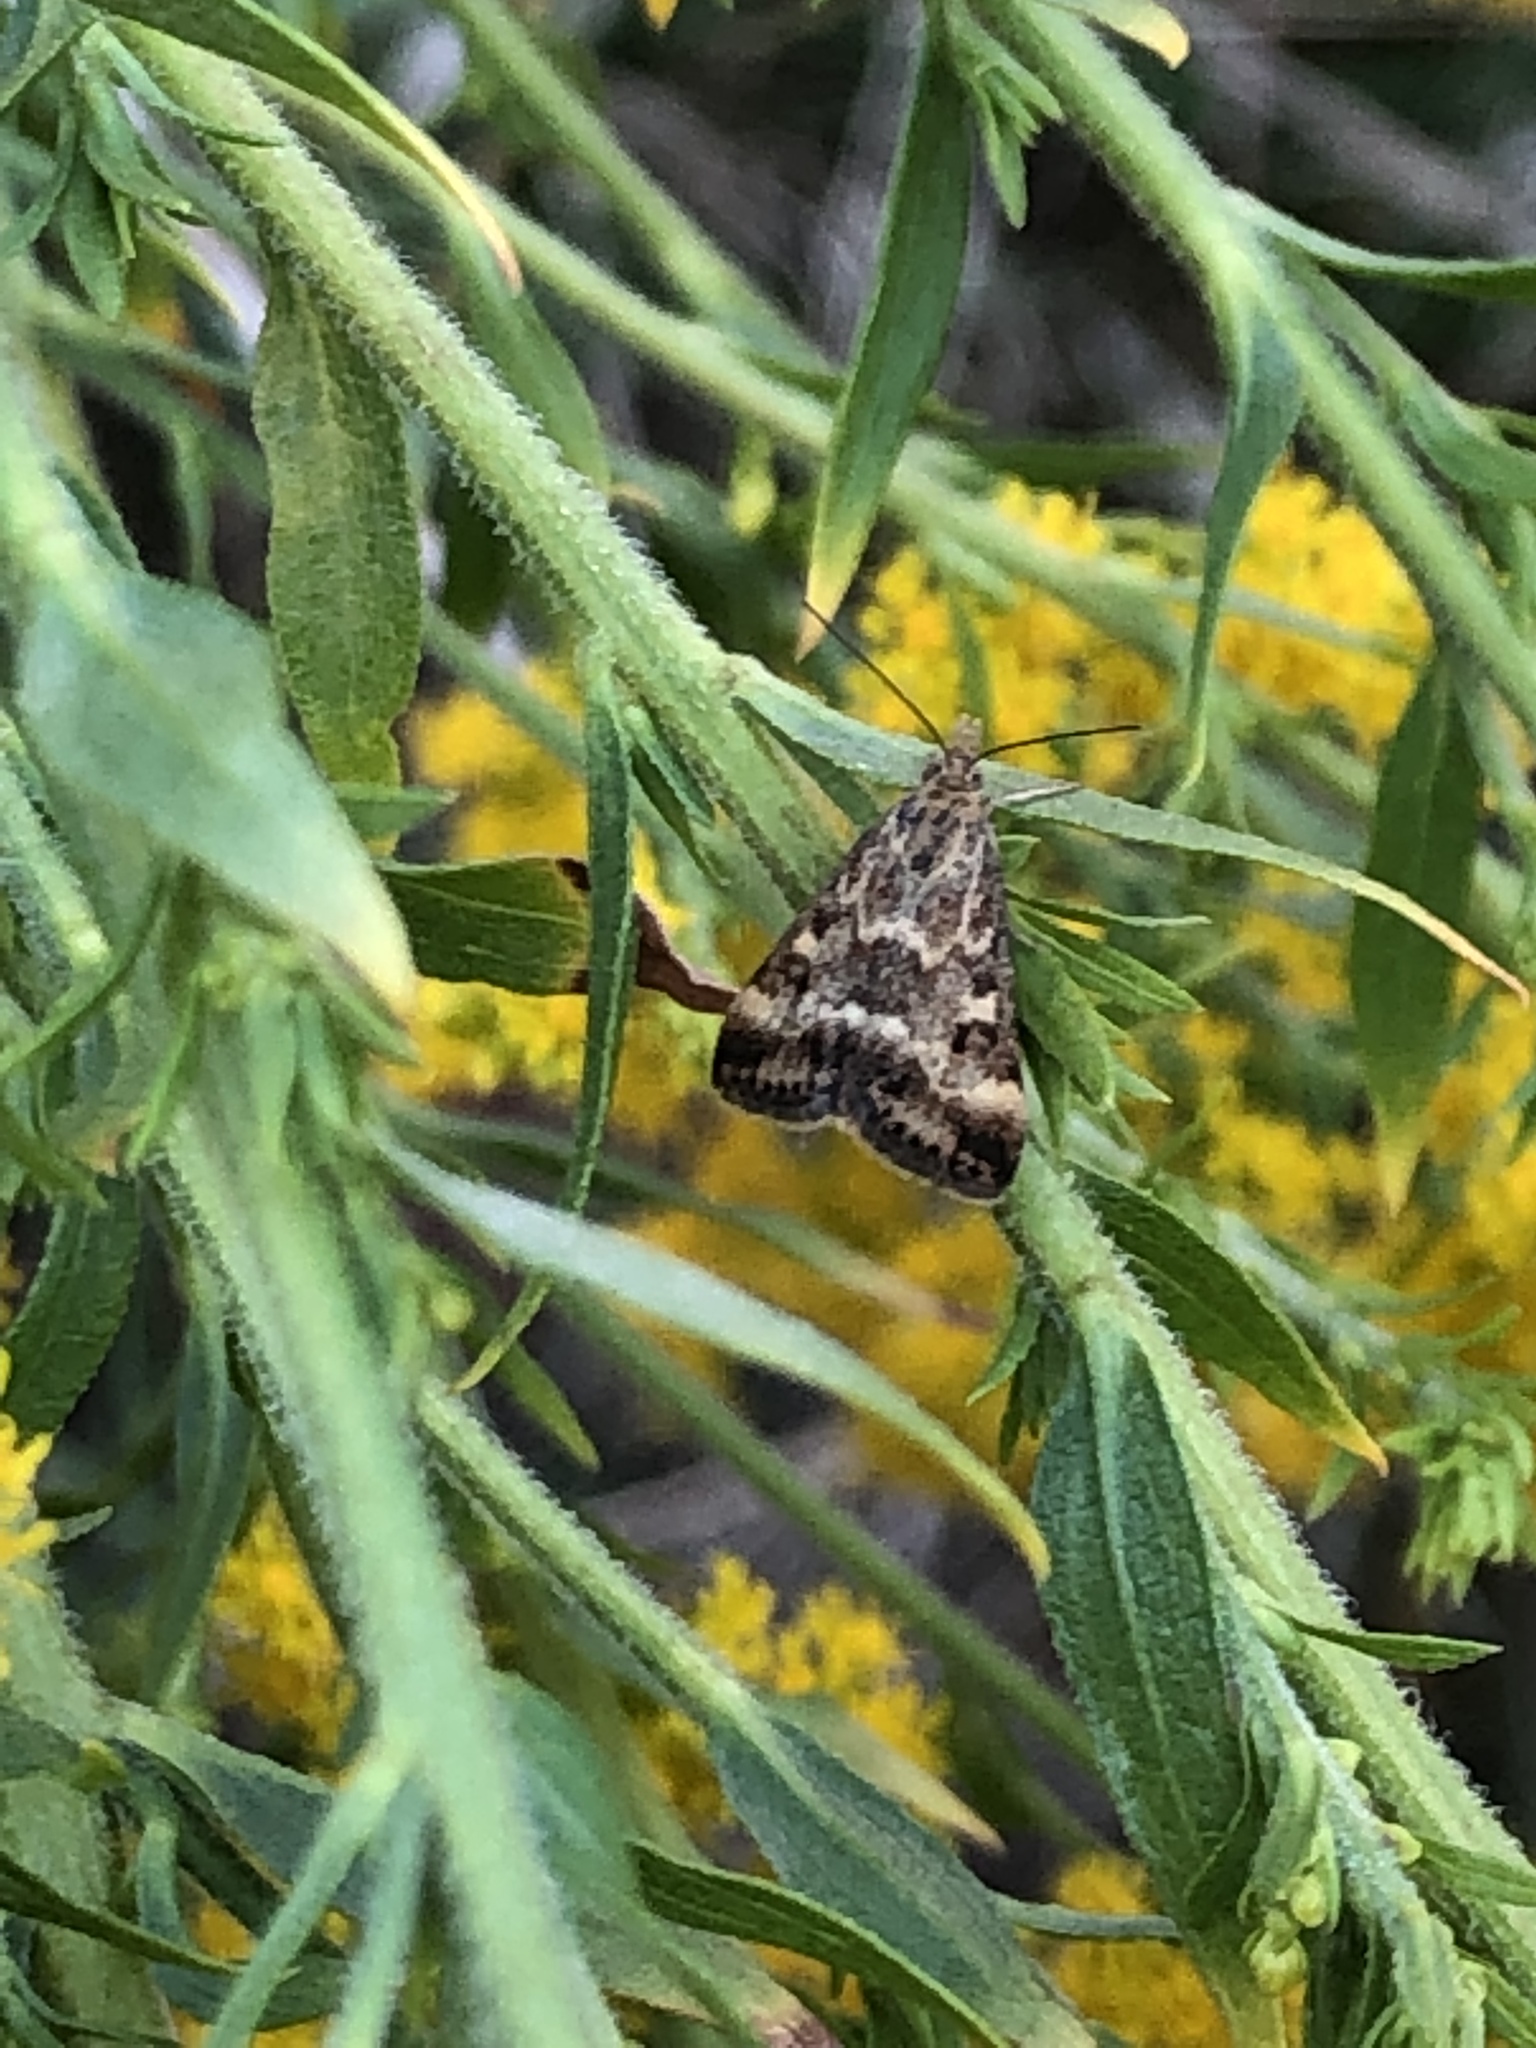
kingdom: Animalia
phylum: Arthropoda
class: Insecta
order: Lepidoptera
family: Crambidae
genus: Pyrausta
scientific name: Pyrausta despicata
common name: Straw-barred pearl
